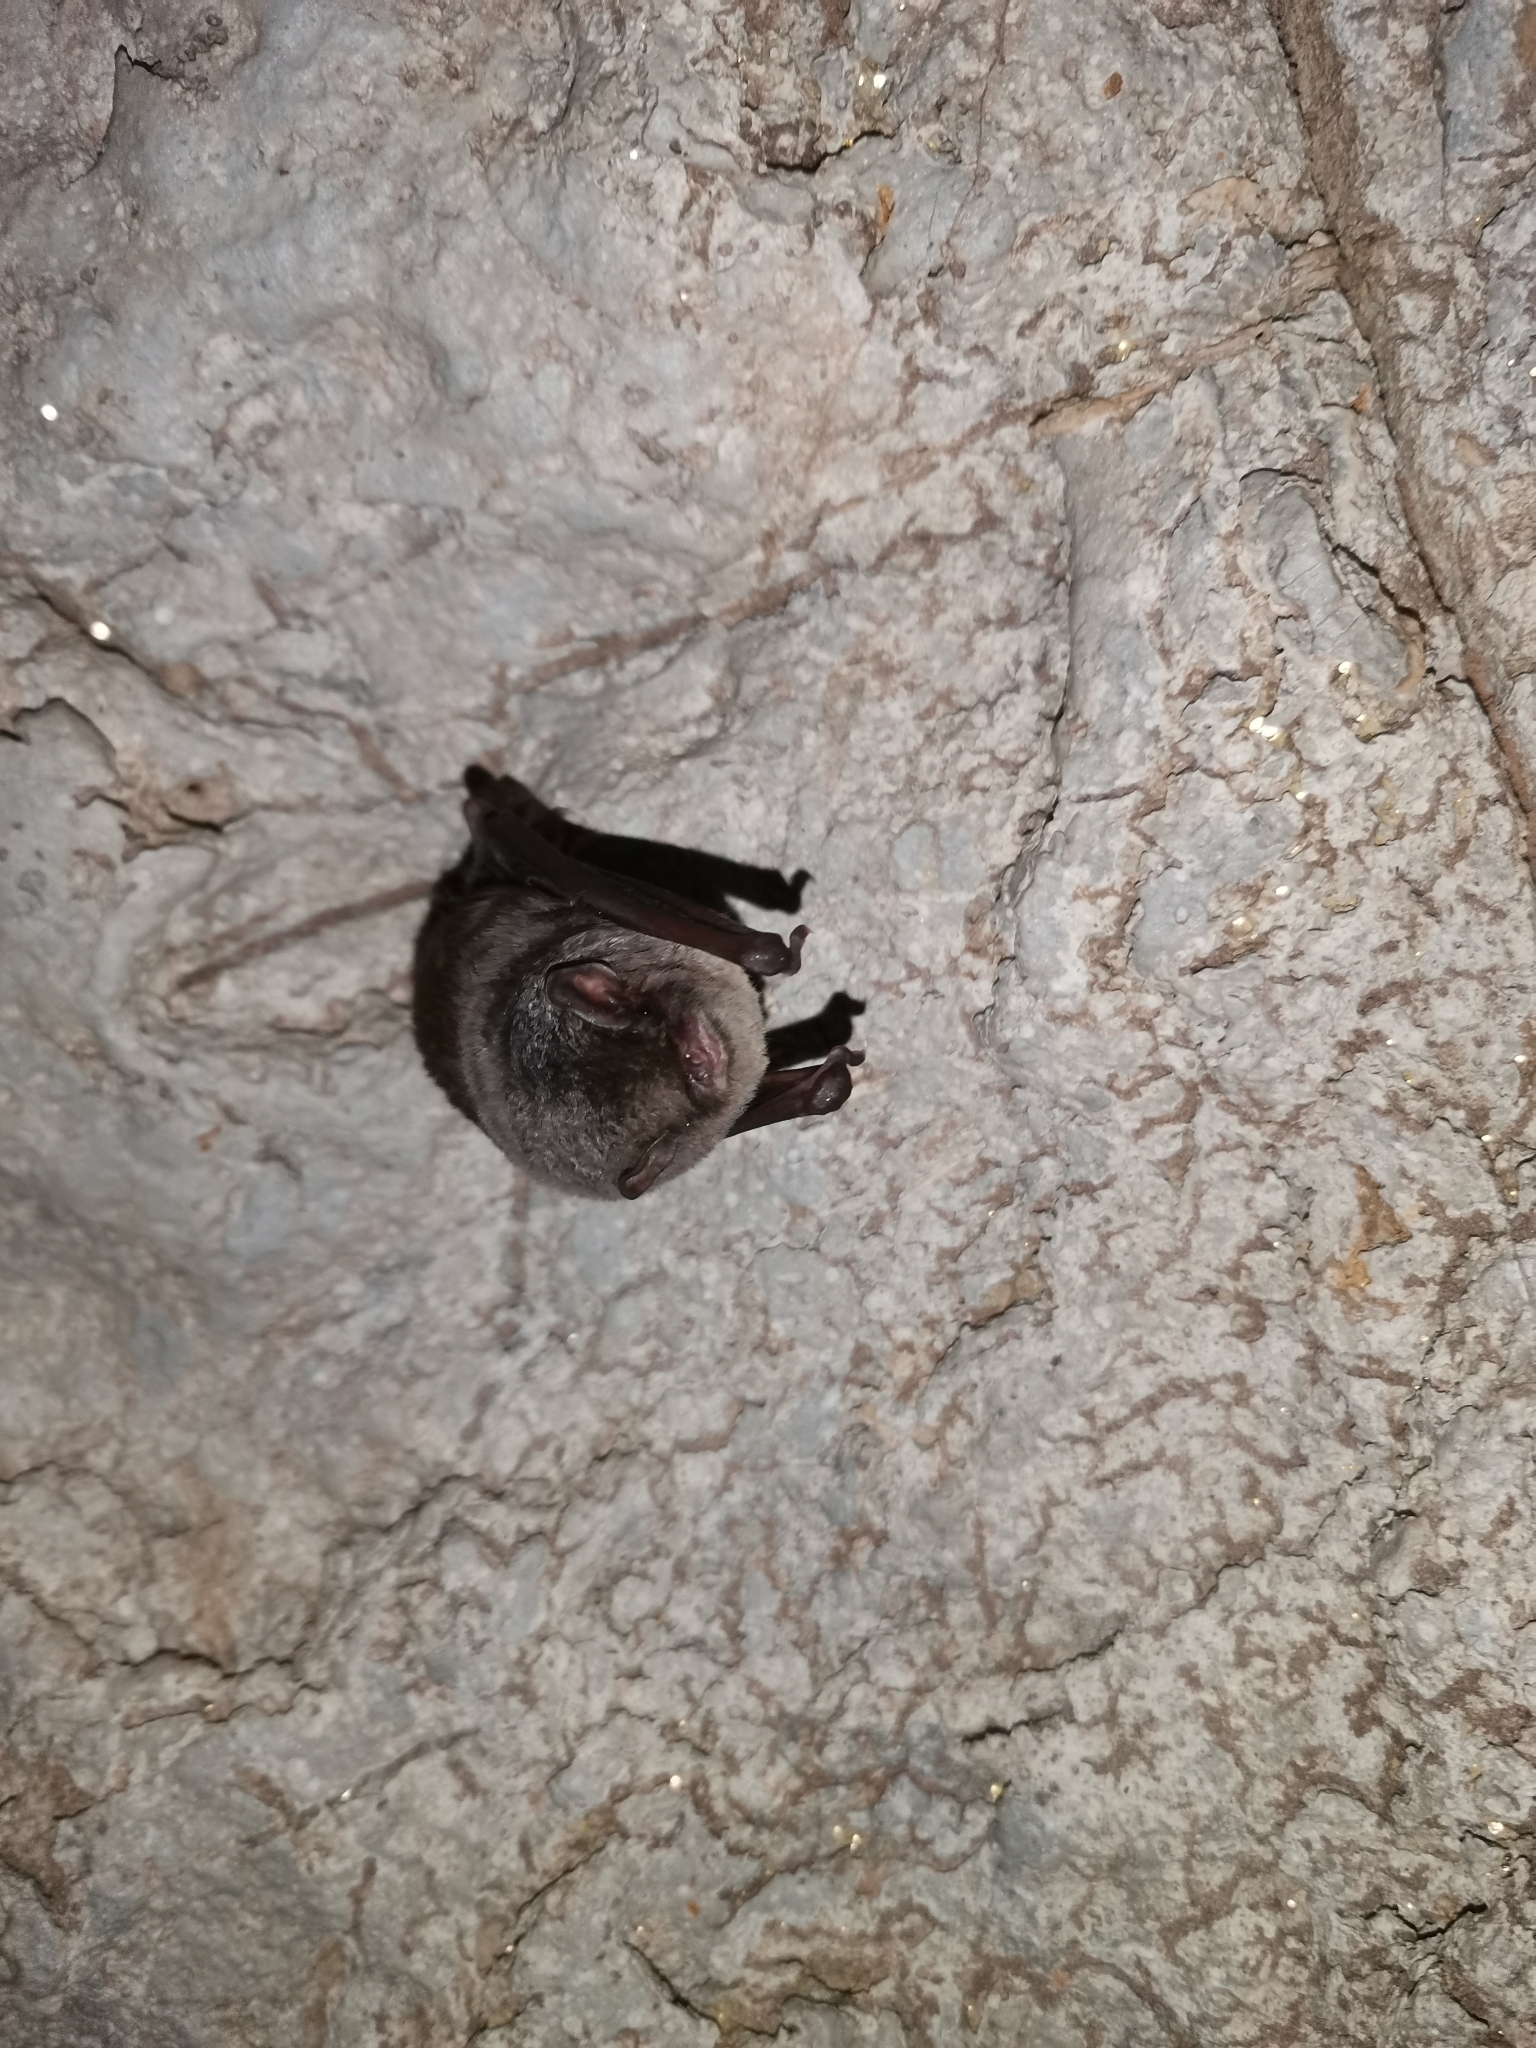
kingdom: Animalia
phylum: Chordata
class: Mammalia
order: Chiroptera
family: Miniopteridae
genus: Miniopterus
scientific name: Miniopterus schreibersii
